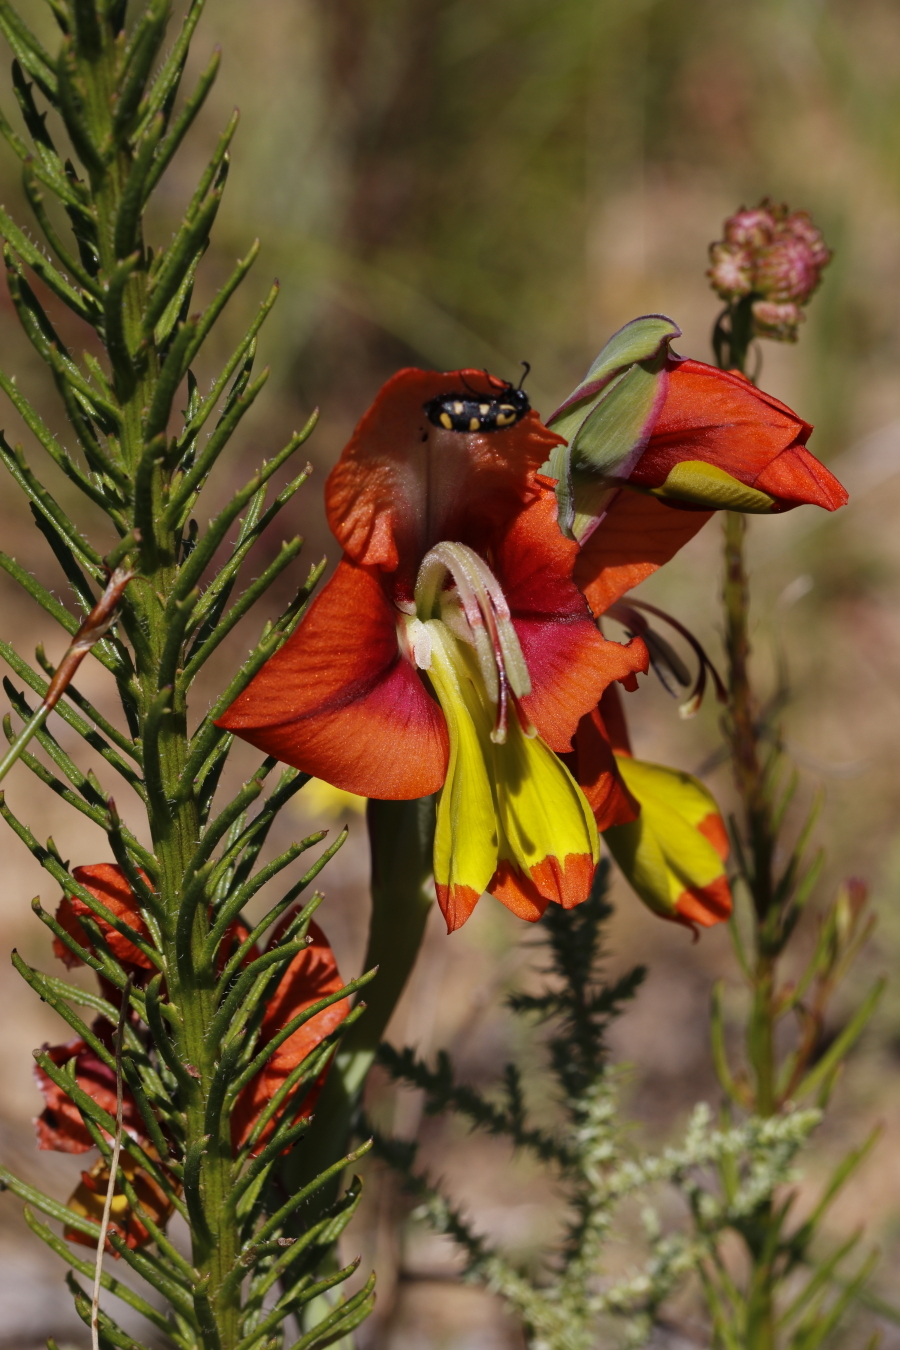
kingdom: Plantae
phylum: Tracheophyta
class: Liliopsida
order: Asparagales
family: Iridaceae
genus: Gladiolus
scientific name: Gladiolus alatus
